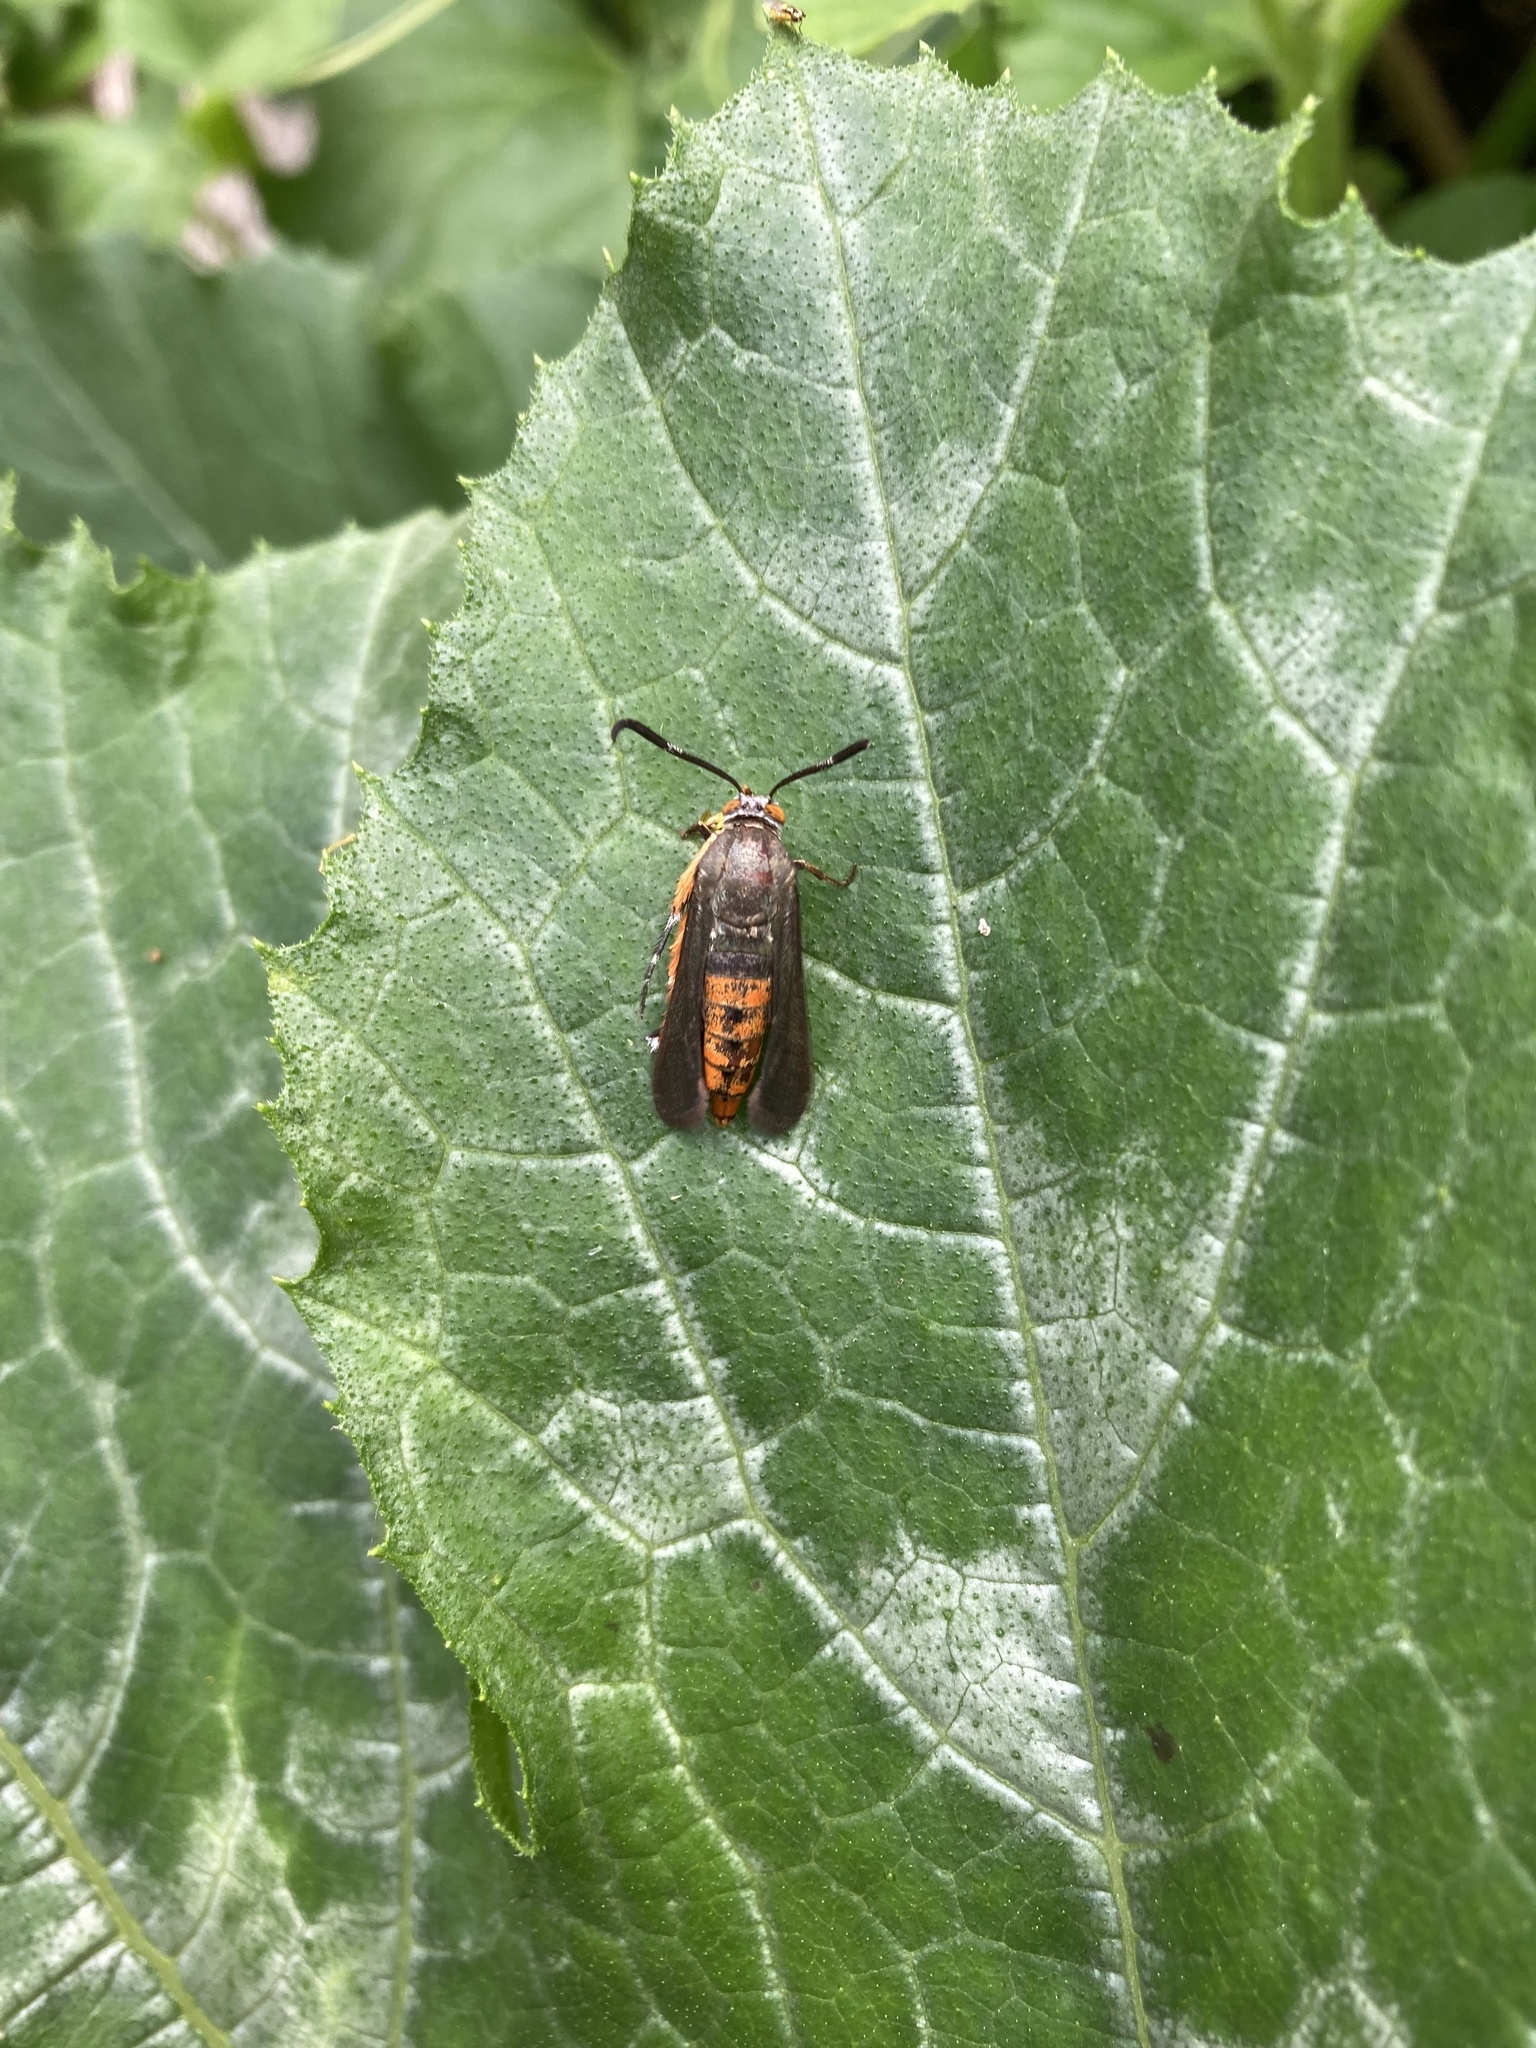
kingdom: Animalia
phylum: Arthropoda
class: Insecta
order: Lepidoptera
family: Sesiidae
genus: Eichlinia
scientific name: Eichlinia cucurbitae
